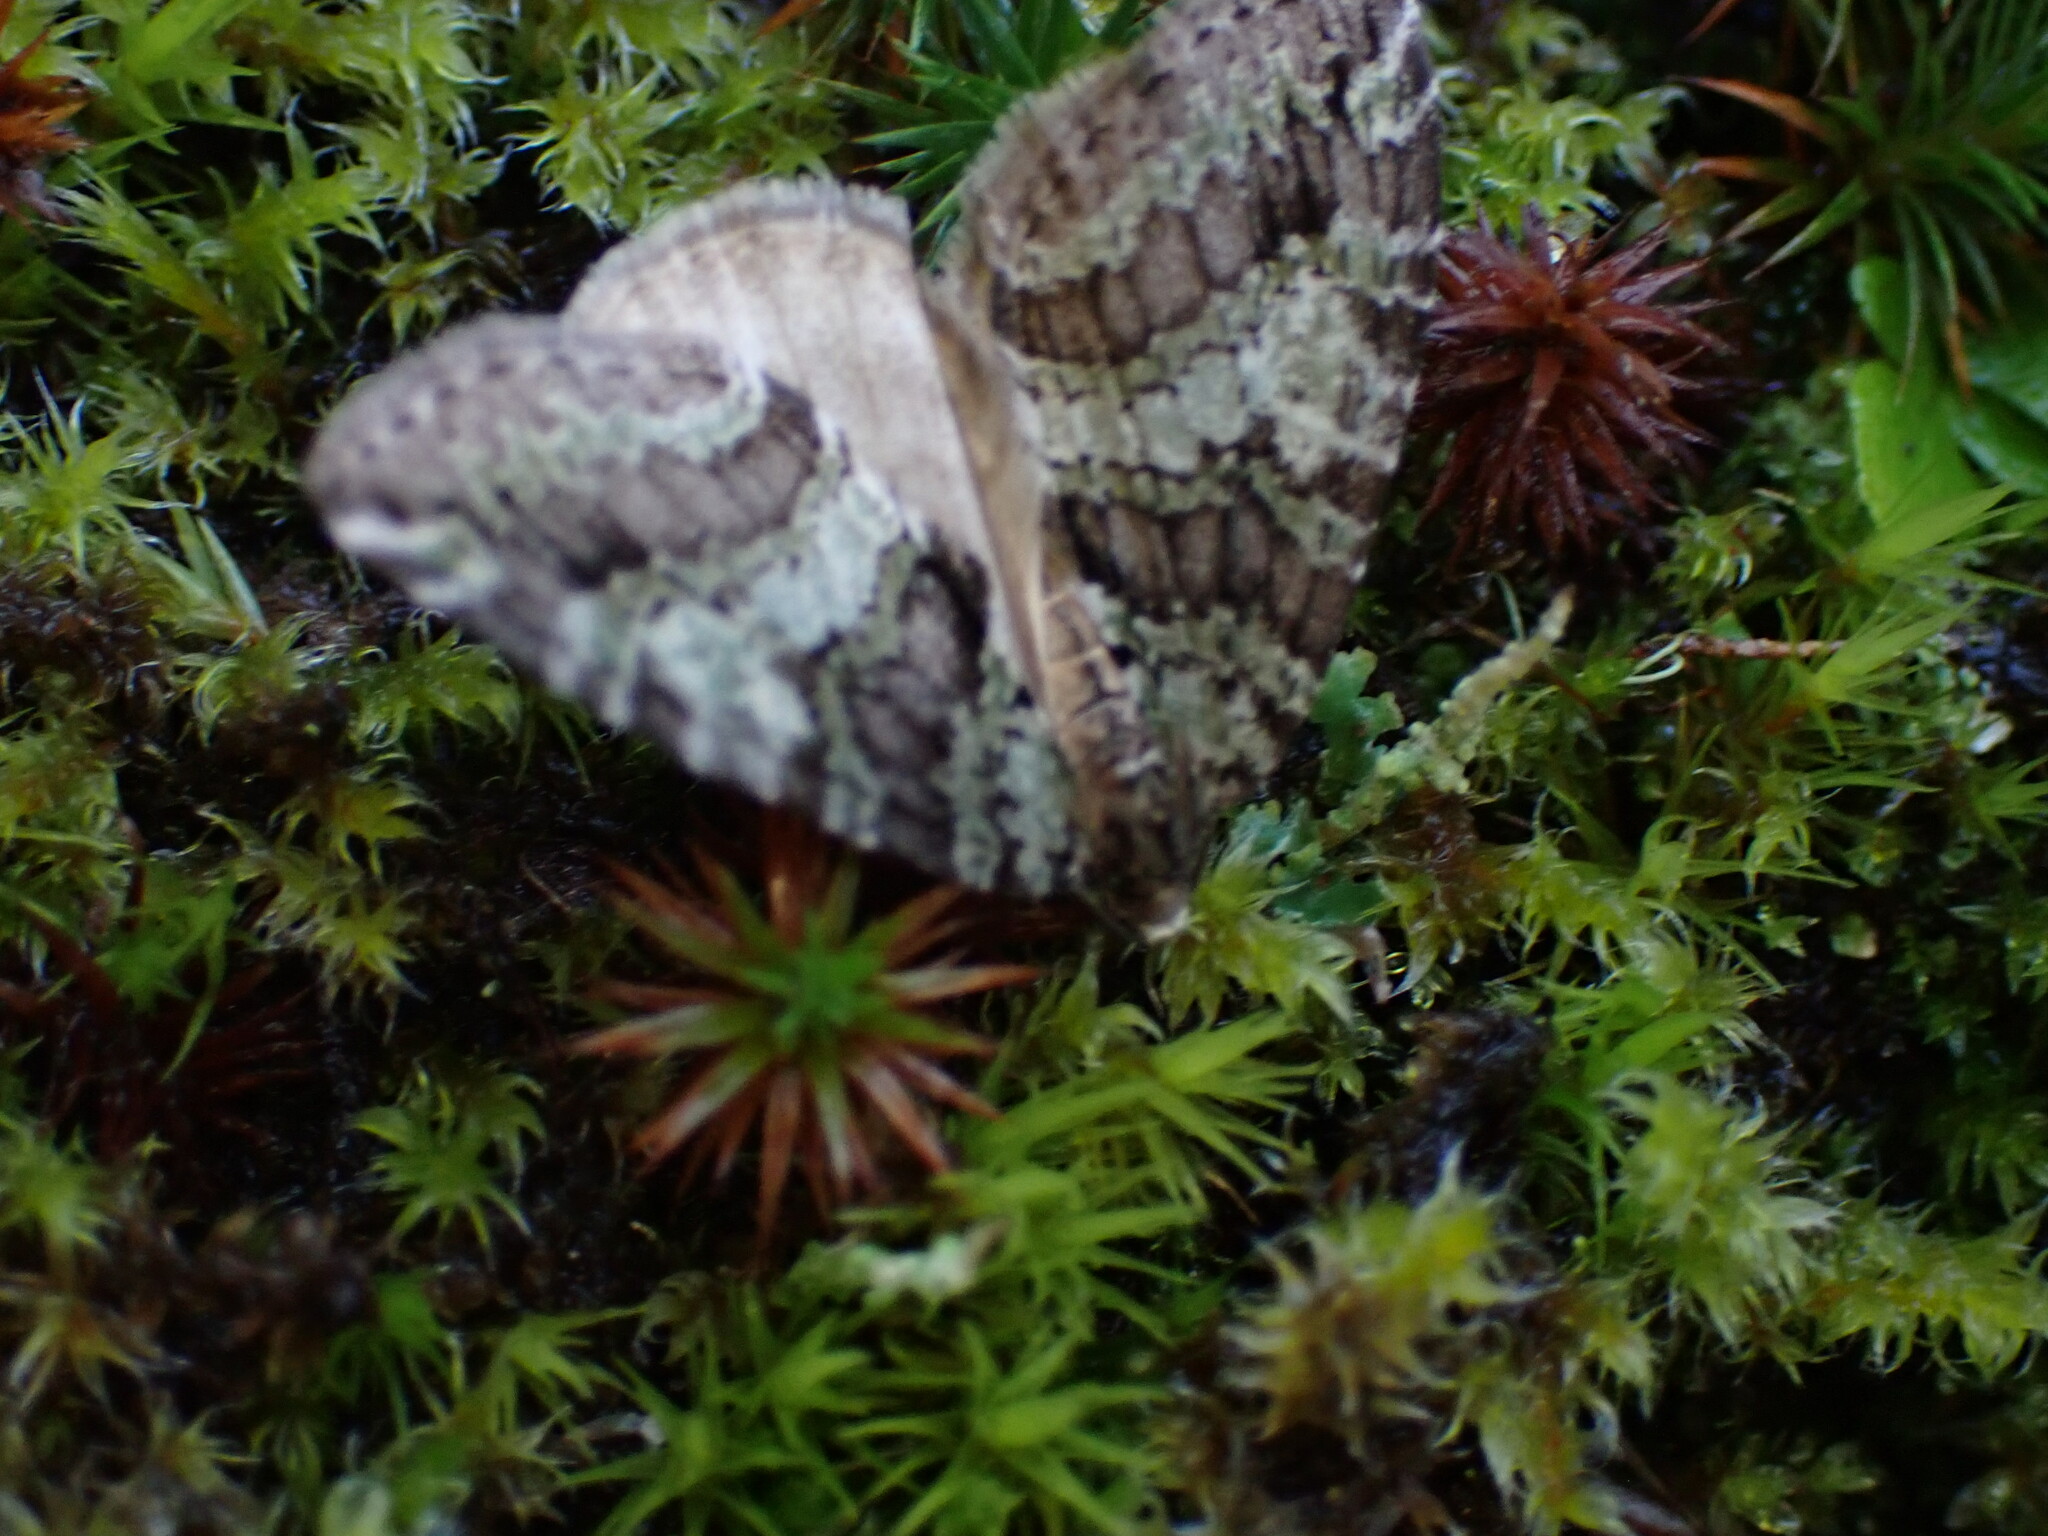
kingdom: Animalia
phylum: Arthropoda
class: Insecta
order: Lepidoptera
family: Geometridae
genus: Hydriomena
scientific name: Hydriomena nubilofasciata
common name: Oak winter highflier moth
